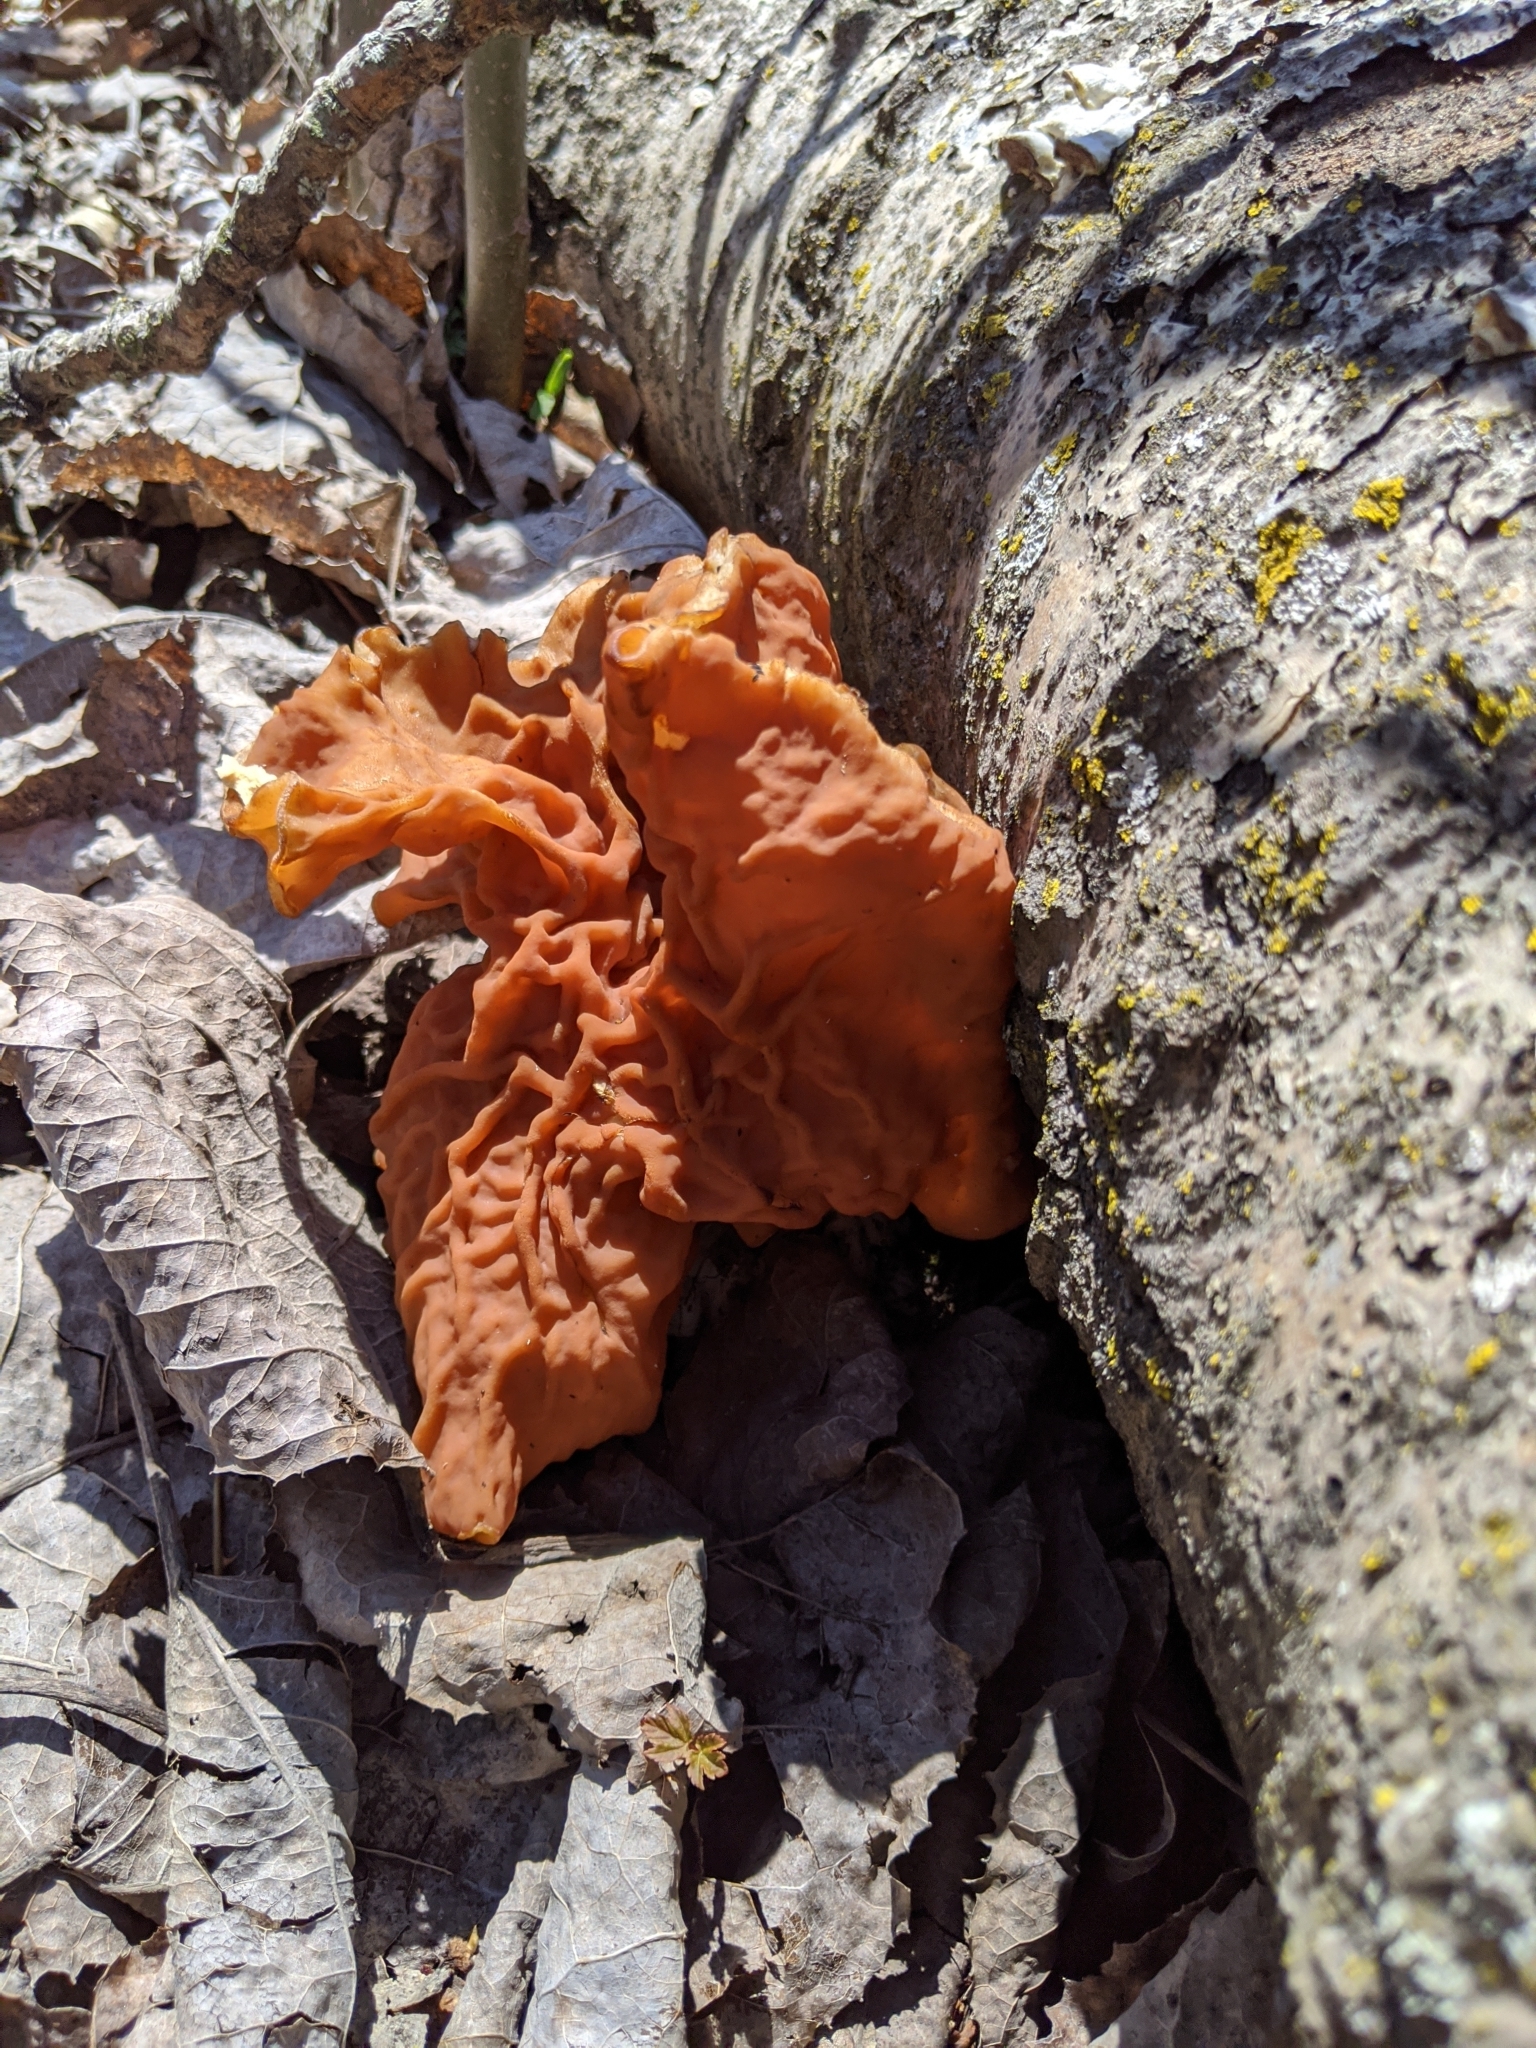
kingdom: Fungi
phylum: Ascomycota
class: Pezizomycetes
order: Pezizales
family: Discinaceae
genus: Discina
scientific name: Discina brunnea
